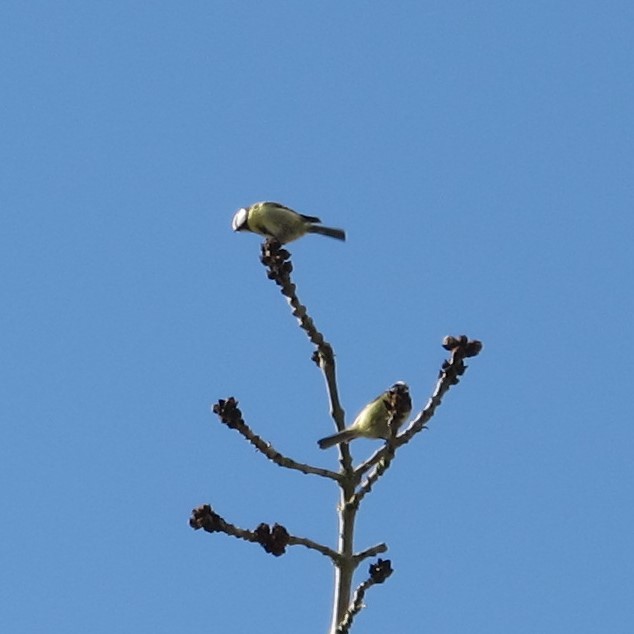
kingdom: Animalia
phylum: Chordata
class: Aves
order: Passeriformes
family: Paridae
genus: Cyanistes
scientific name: Cyanistes caeruleus
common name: Eurasian blue tit
